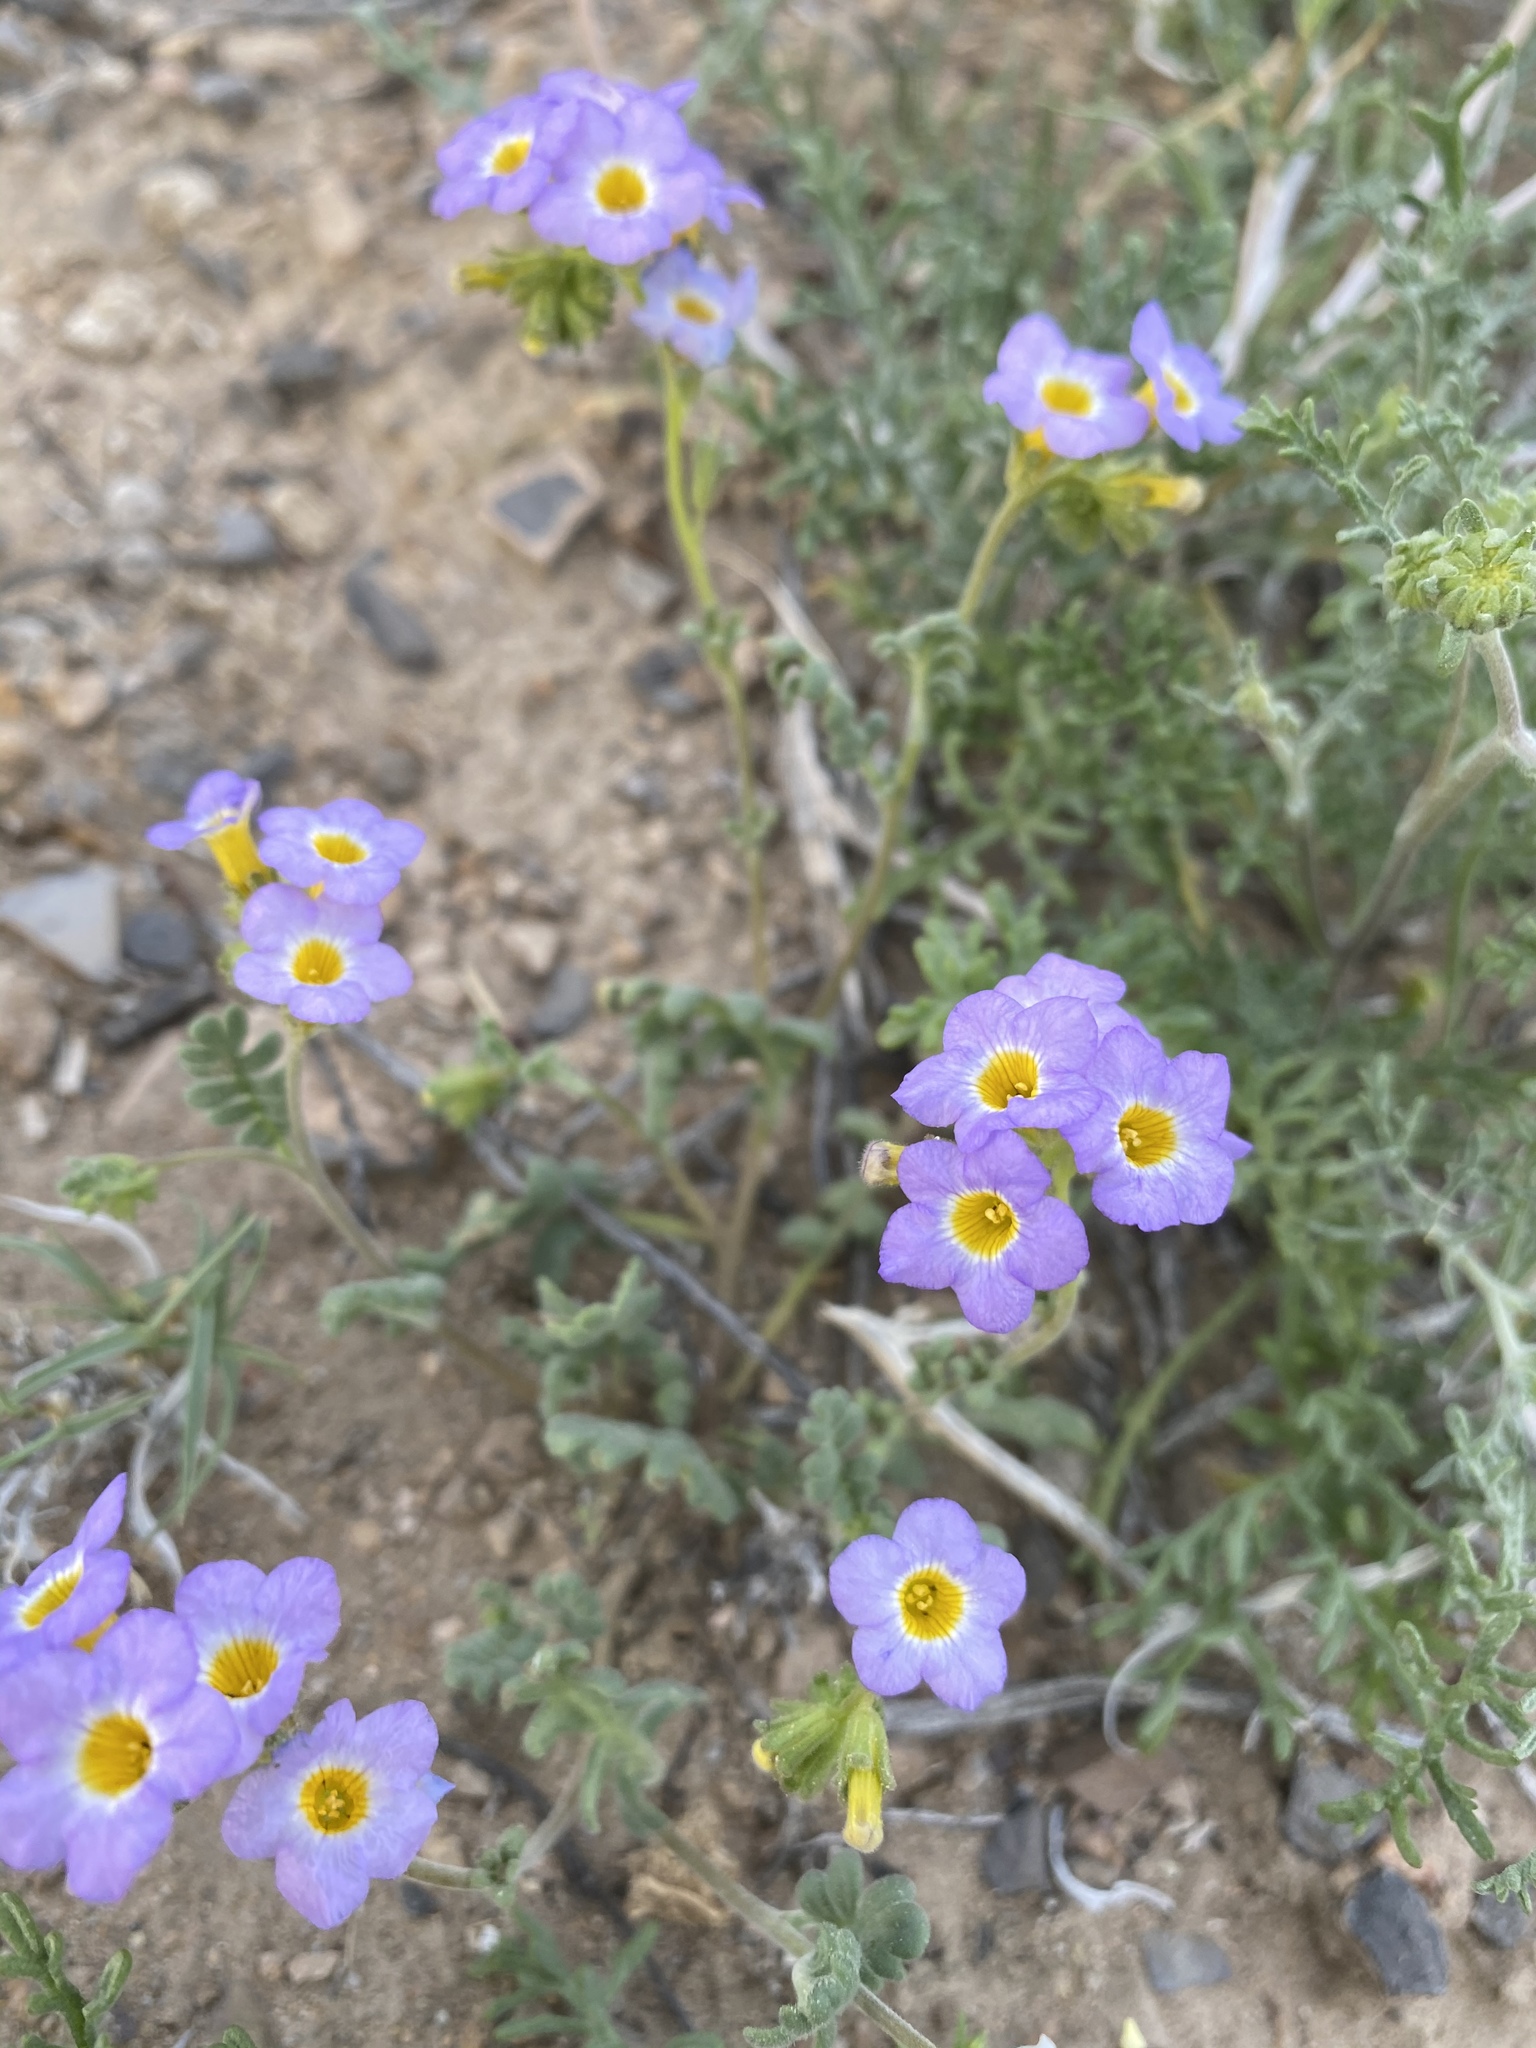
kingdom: Plantae
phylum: Tracheophyta
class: Magnoliopsida
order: Boraginales
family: Hydrophyllaceae
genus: Phacelia
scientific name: Phacelia fremontii
